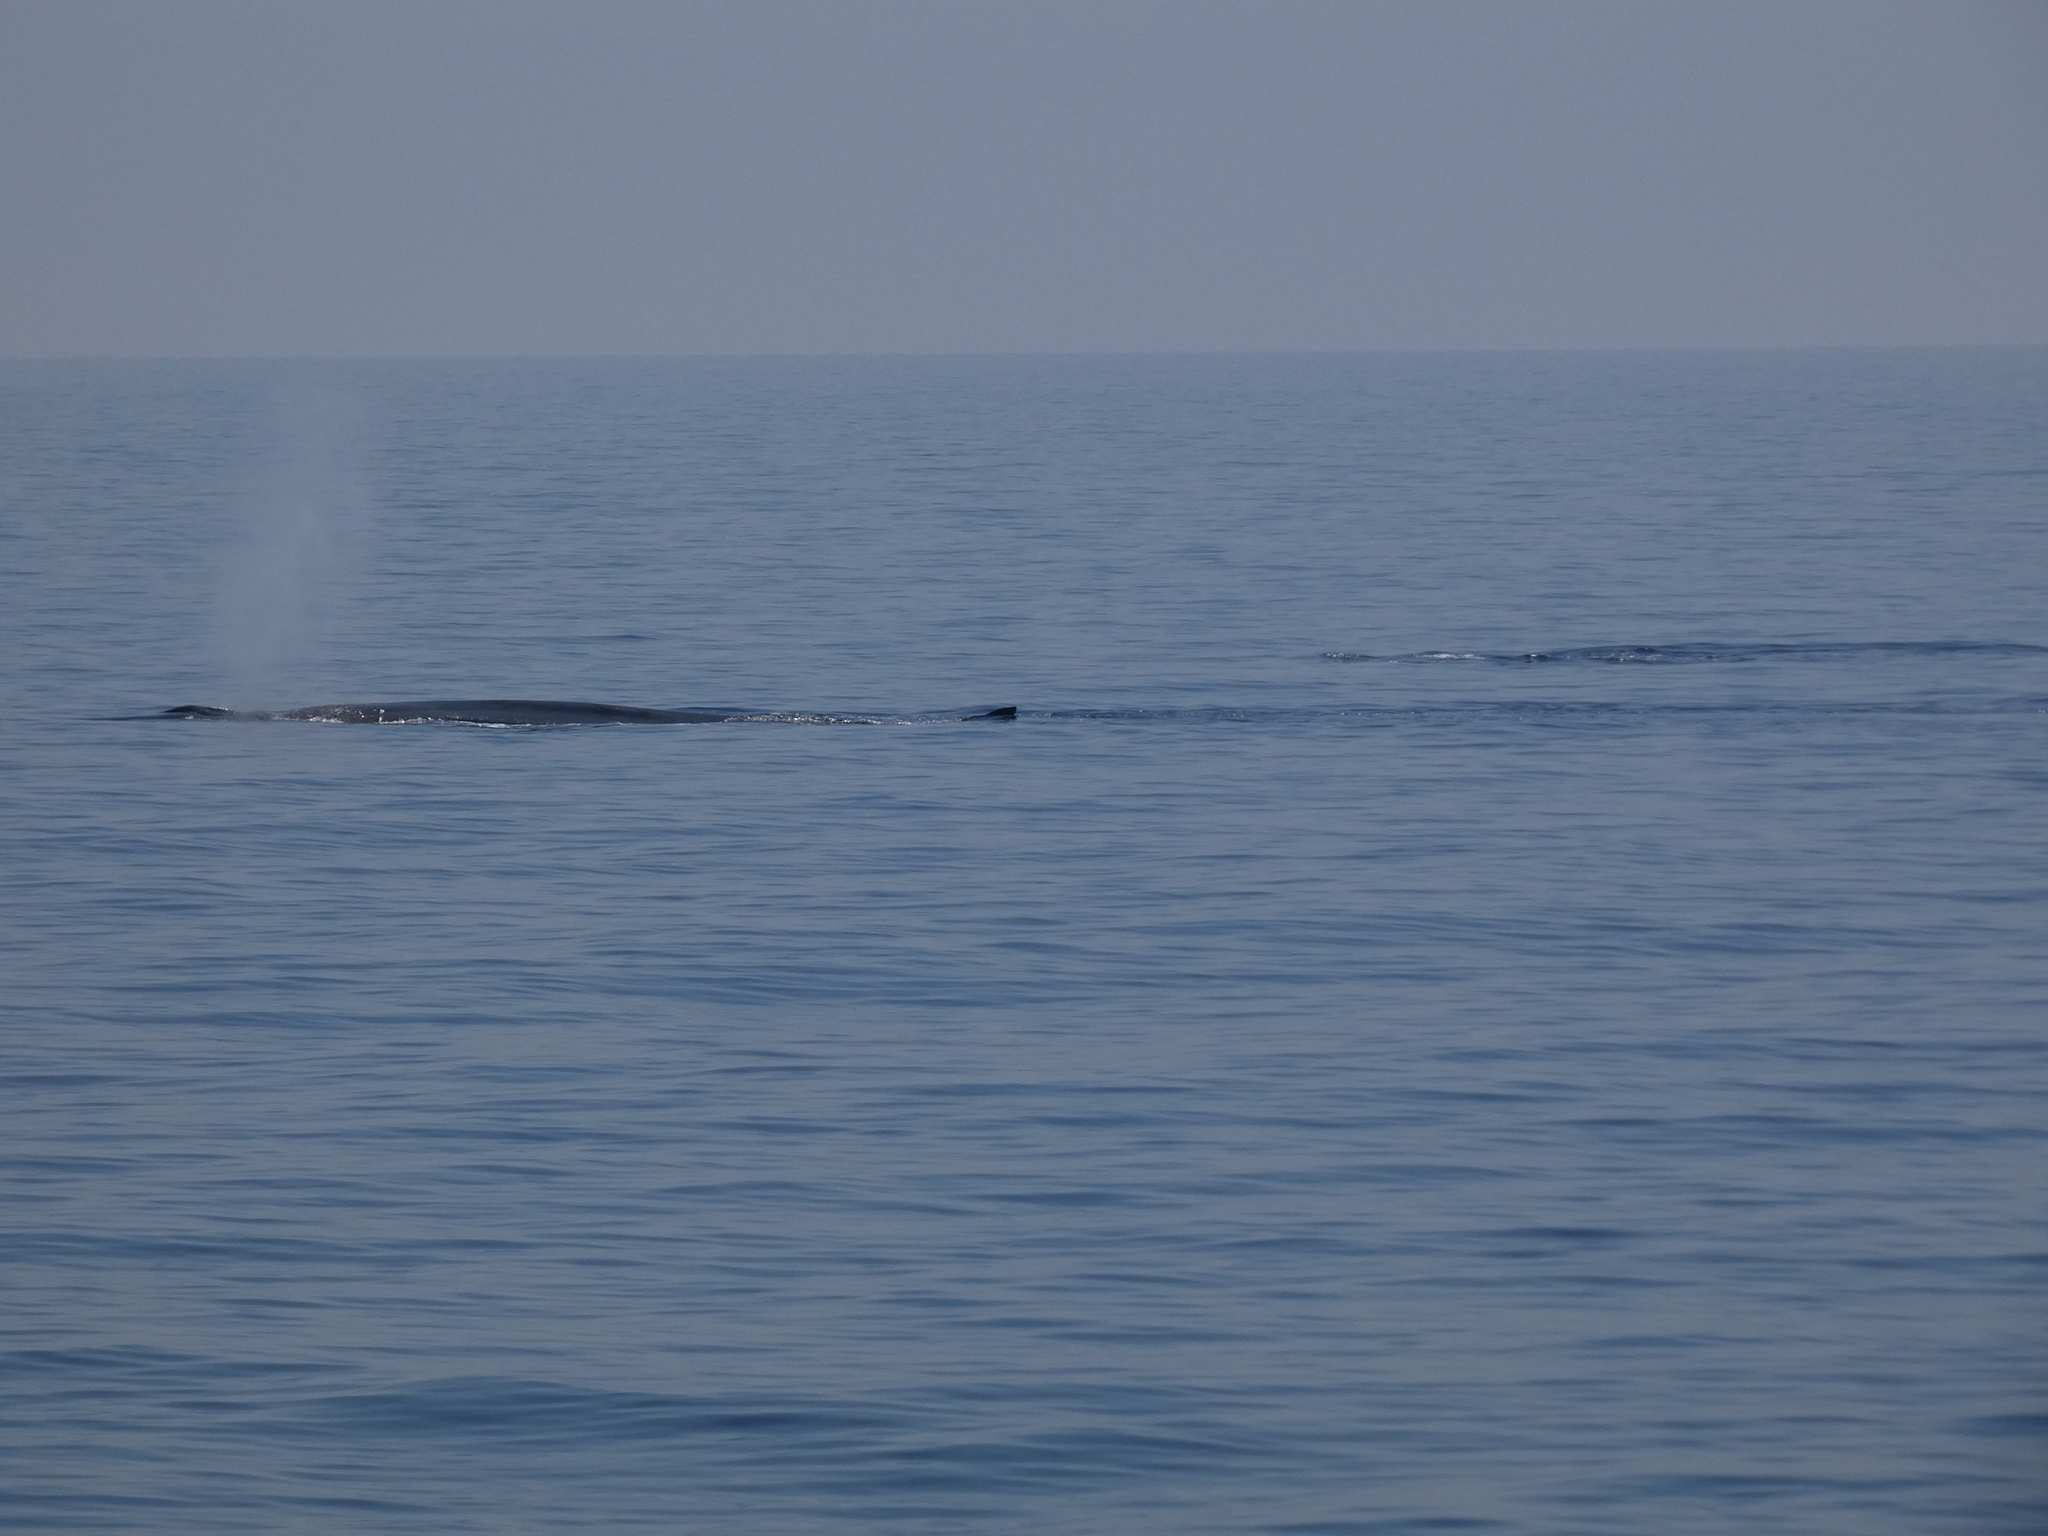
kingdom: Animalia
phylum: Chordata
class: Mammalia
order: Cetacea
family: Balaenopteridae
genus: Balaenoptera
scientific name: Balaenoptera physalus
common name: Fin whale
